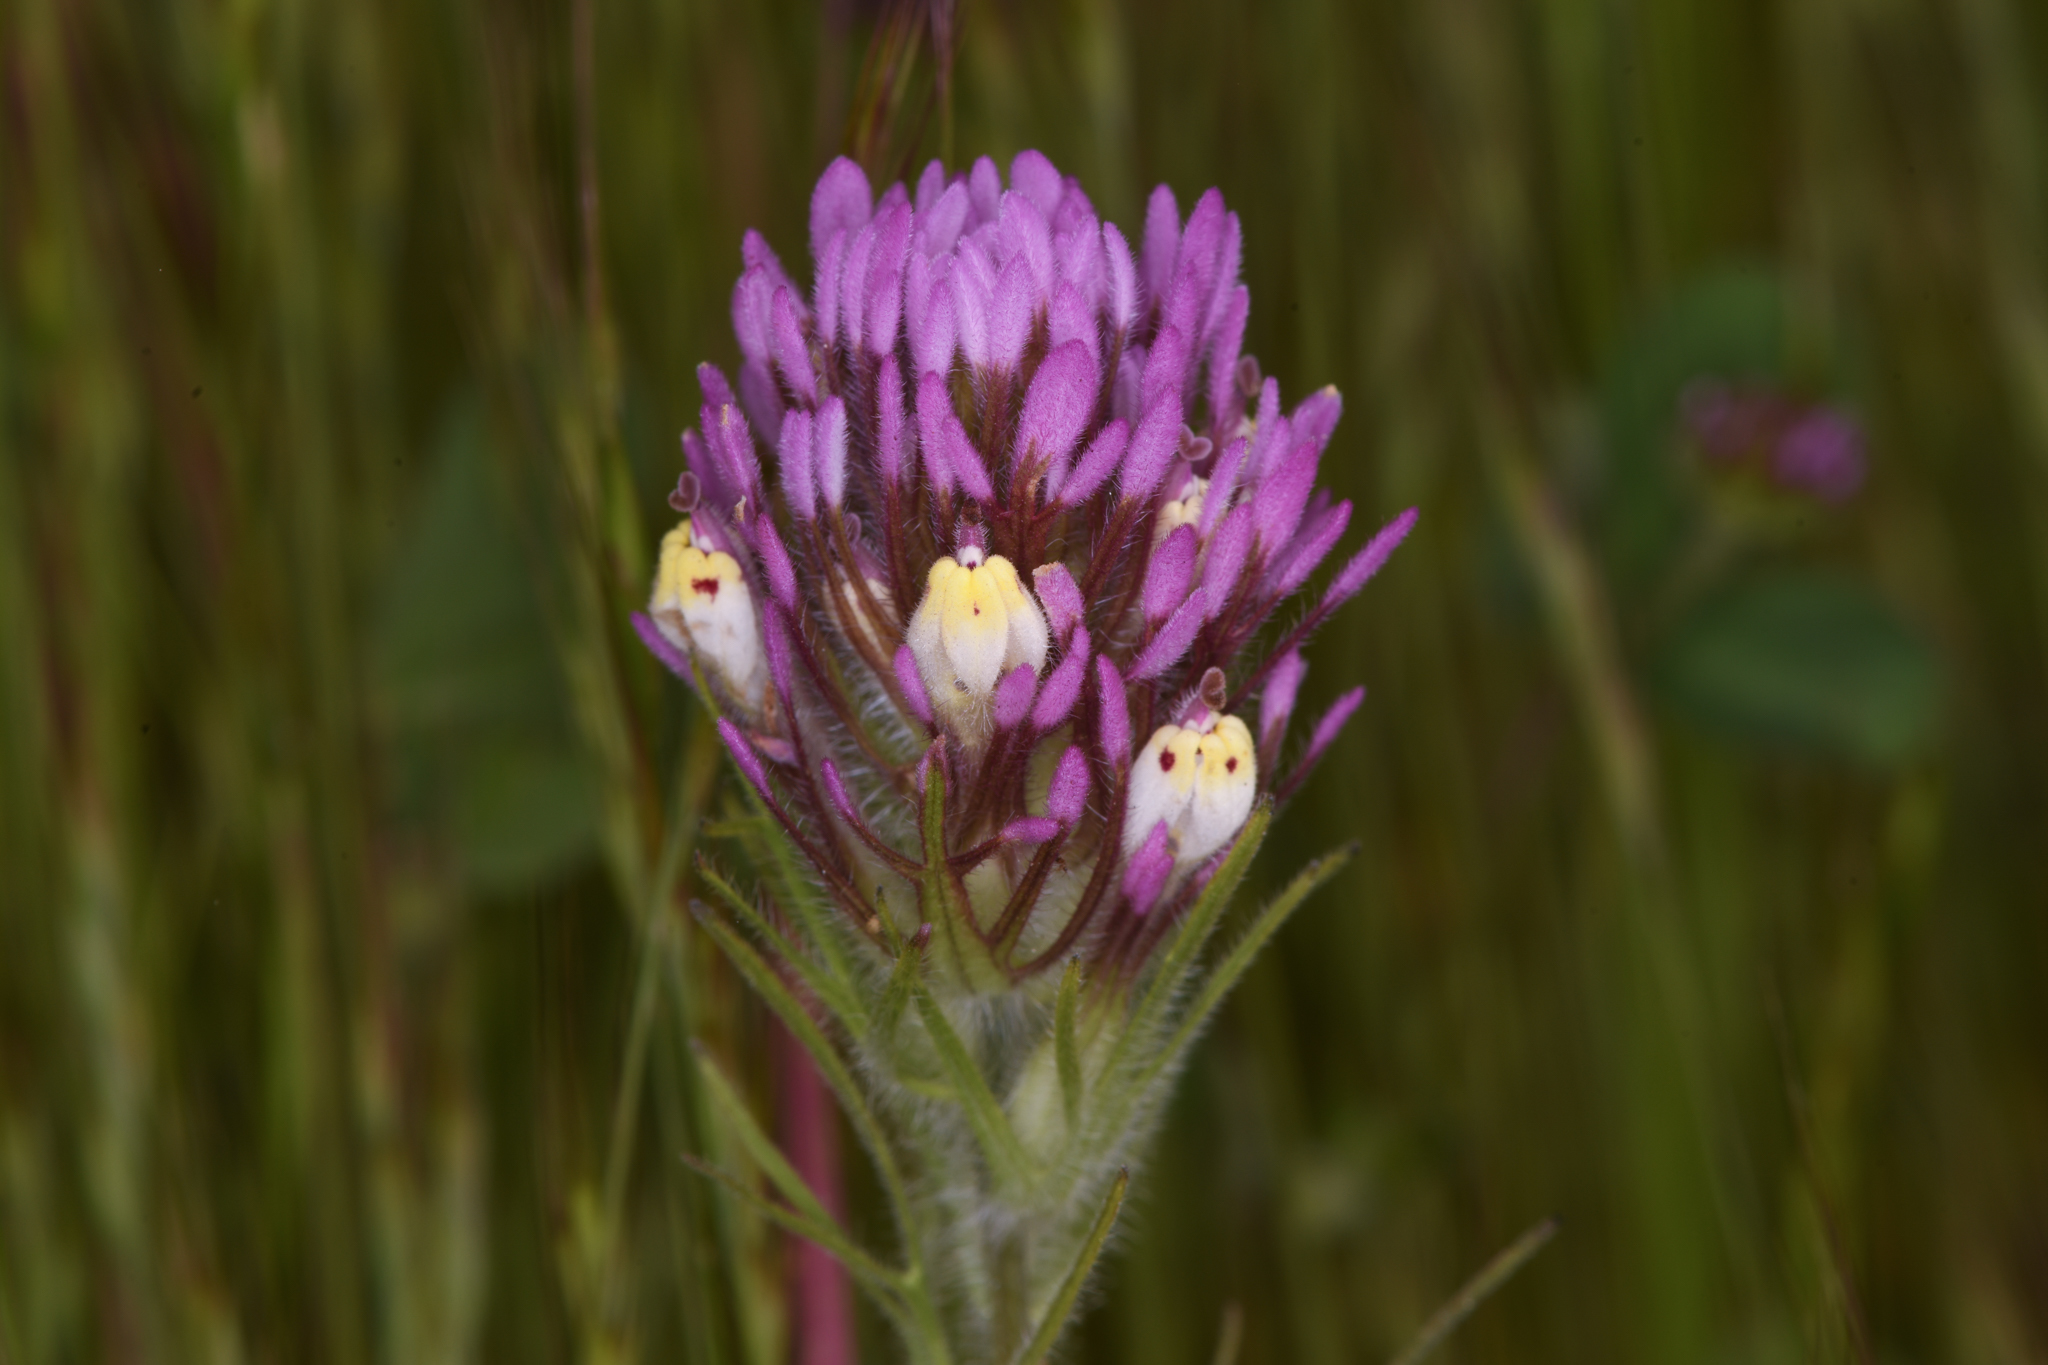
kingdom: Plantae
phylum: Tracheophyta
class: Magnoliopsida
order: Lamiales
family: Orobanchaceae
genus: Castilleja
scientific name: Castilleja lineariloba
